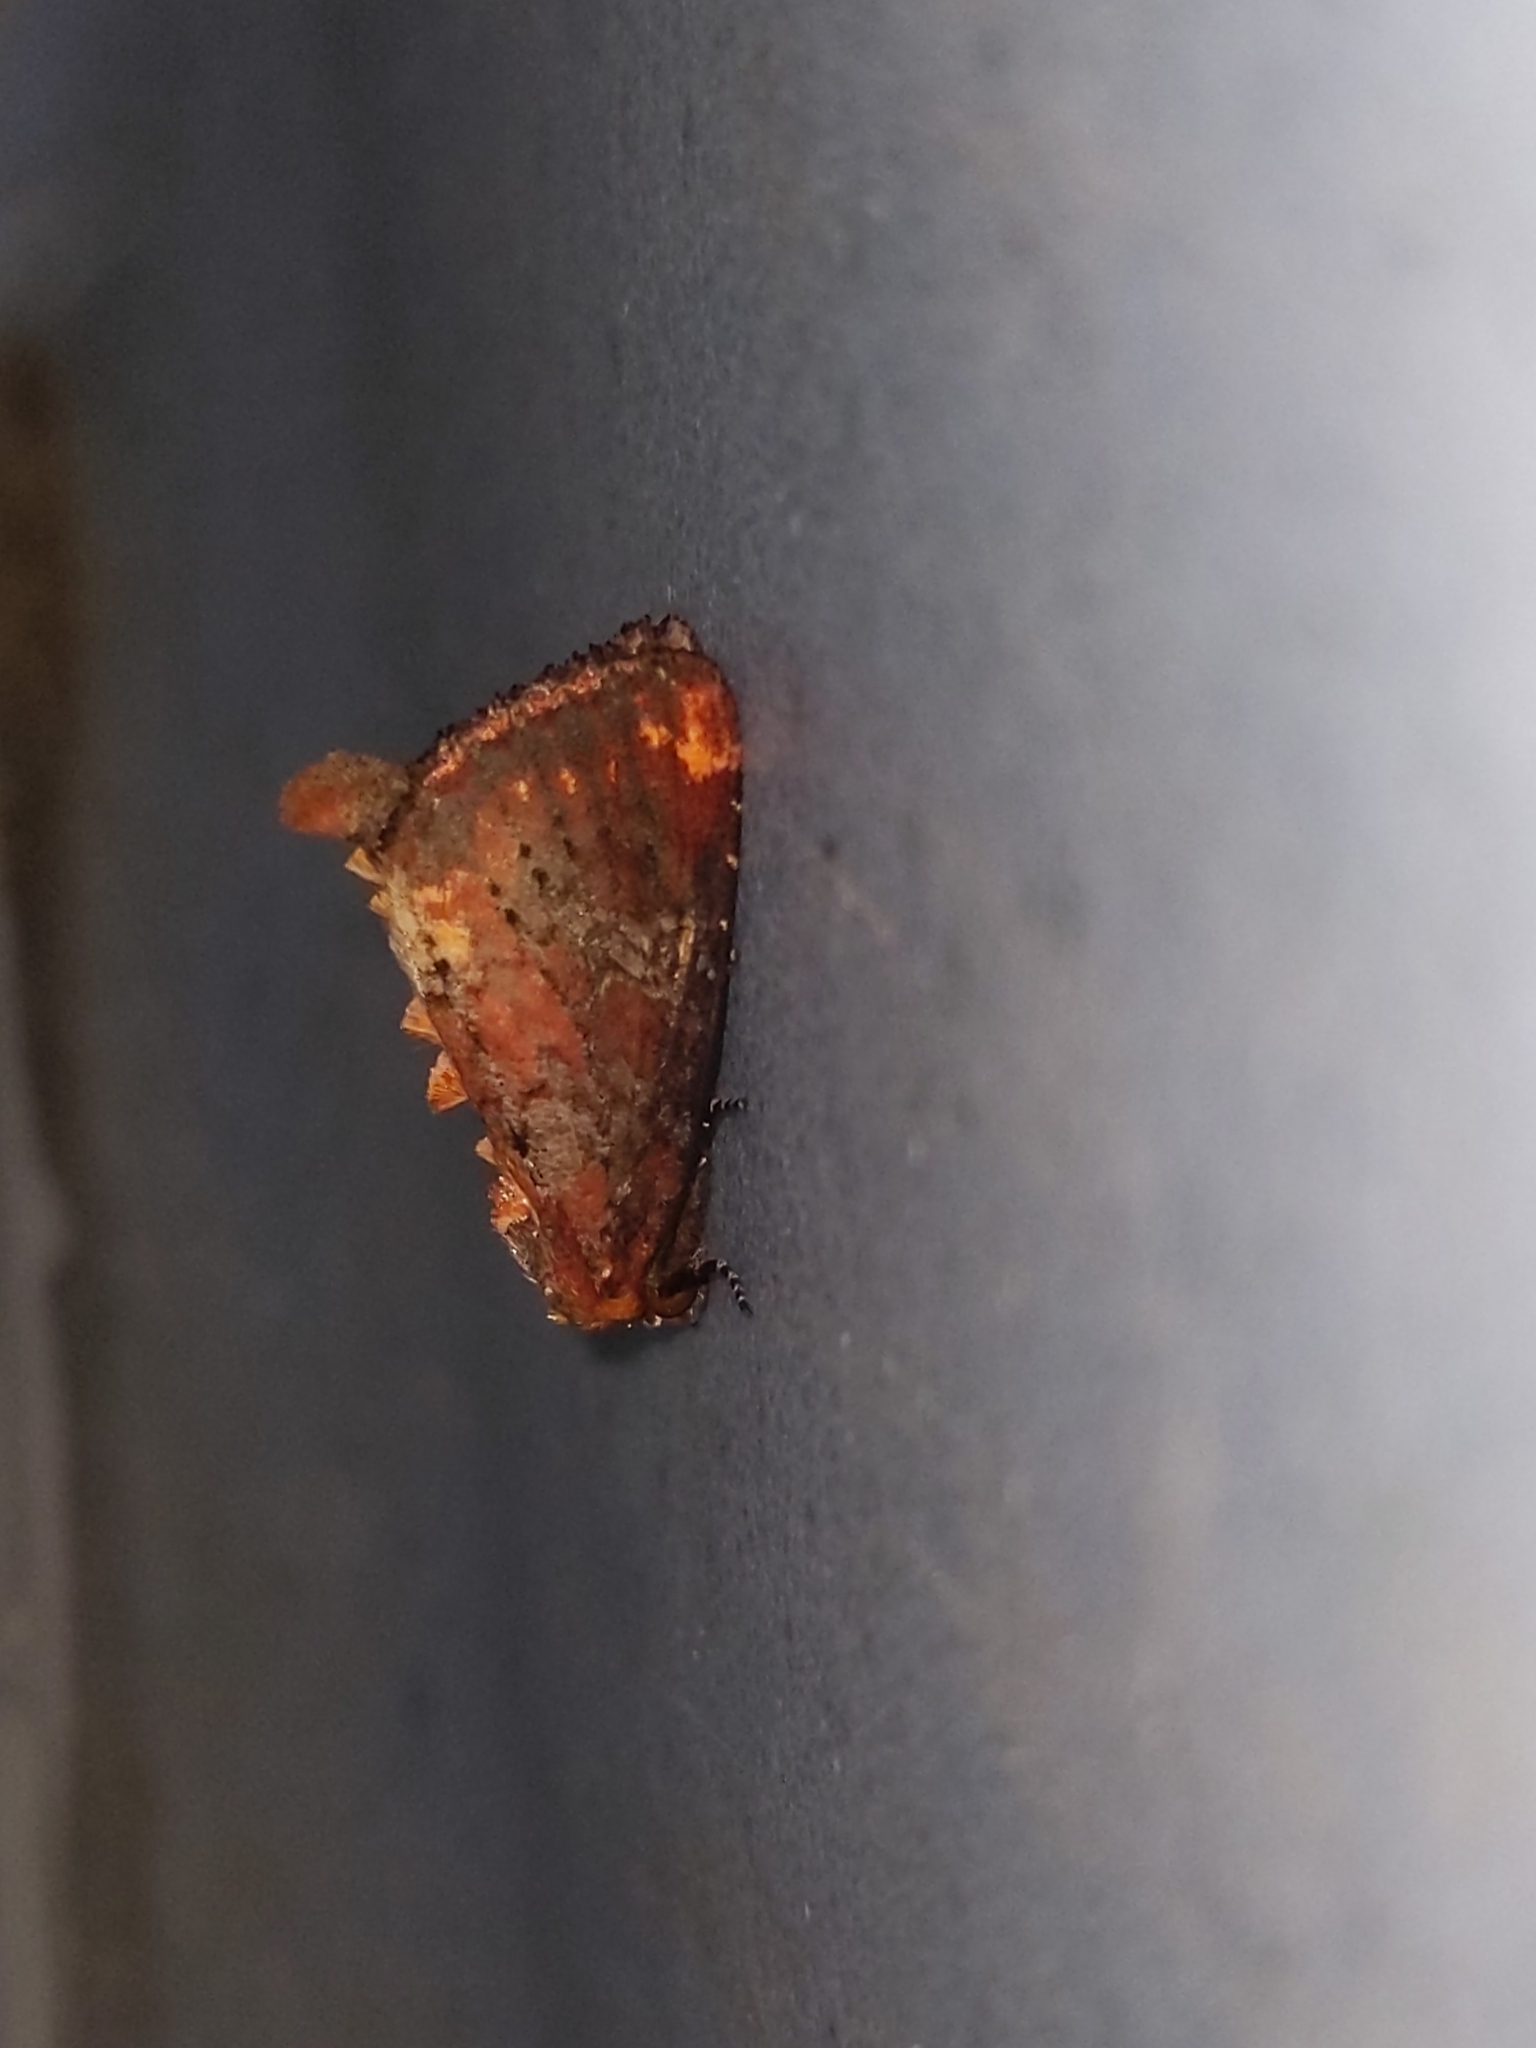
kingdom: Animalia
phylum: Arthropoda
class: Insecta
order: Lepidoptera
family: Noctuidae
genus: Achatodes
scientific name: Achatodes zeae
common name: Elder shoot borer
